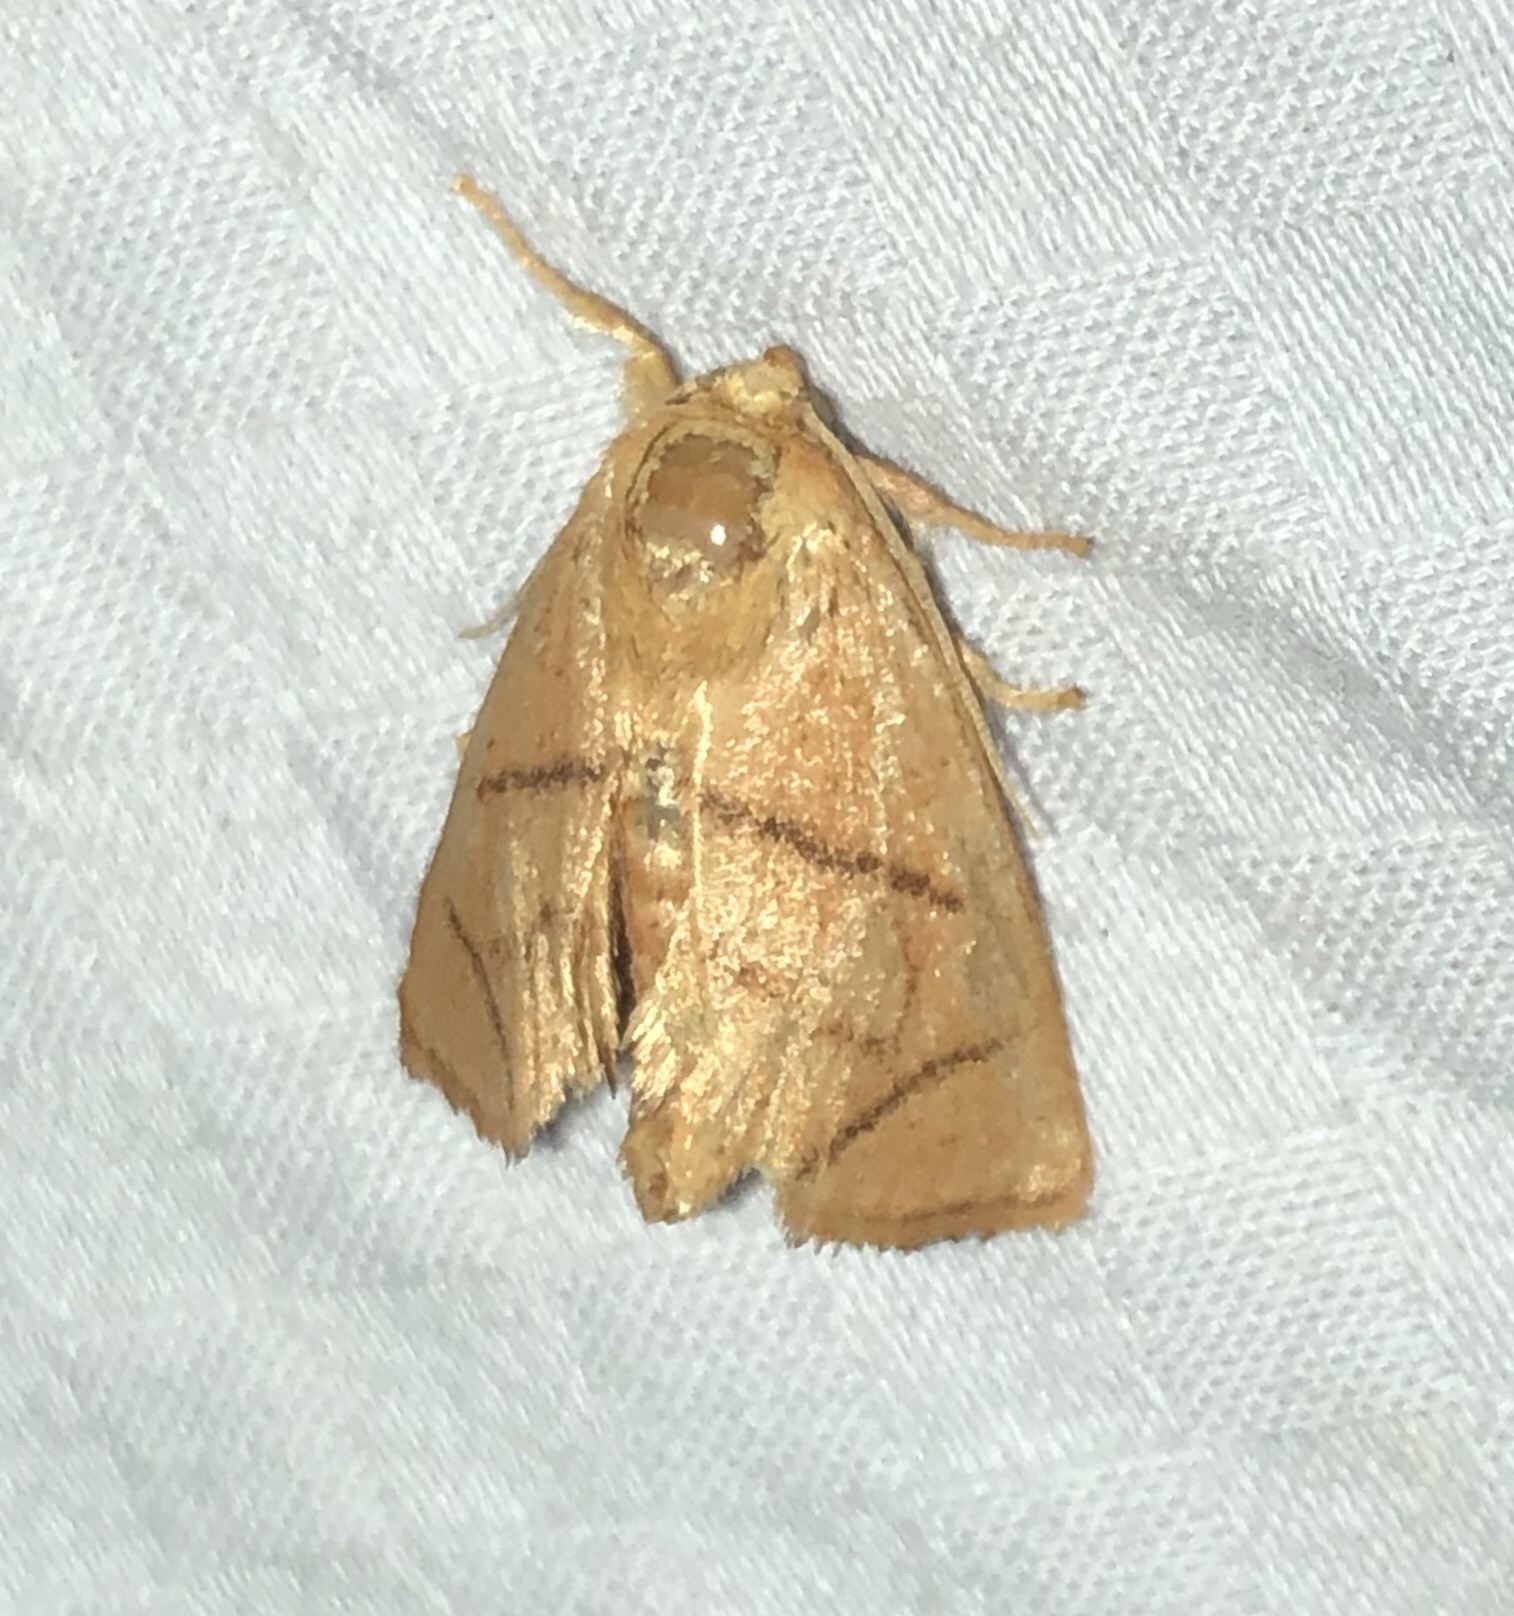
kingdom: Animalia
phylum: Arthropoda
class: Insecta
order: Lepidoptera
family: Limacodidae
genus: Apoda
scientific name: Apoda y-inversa
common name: Yellow-collared slug moth
